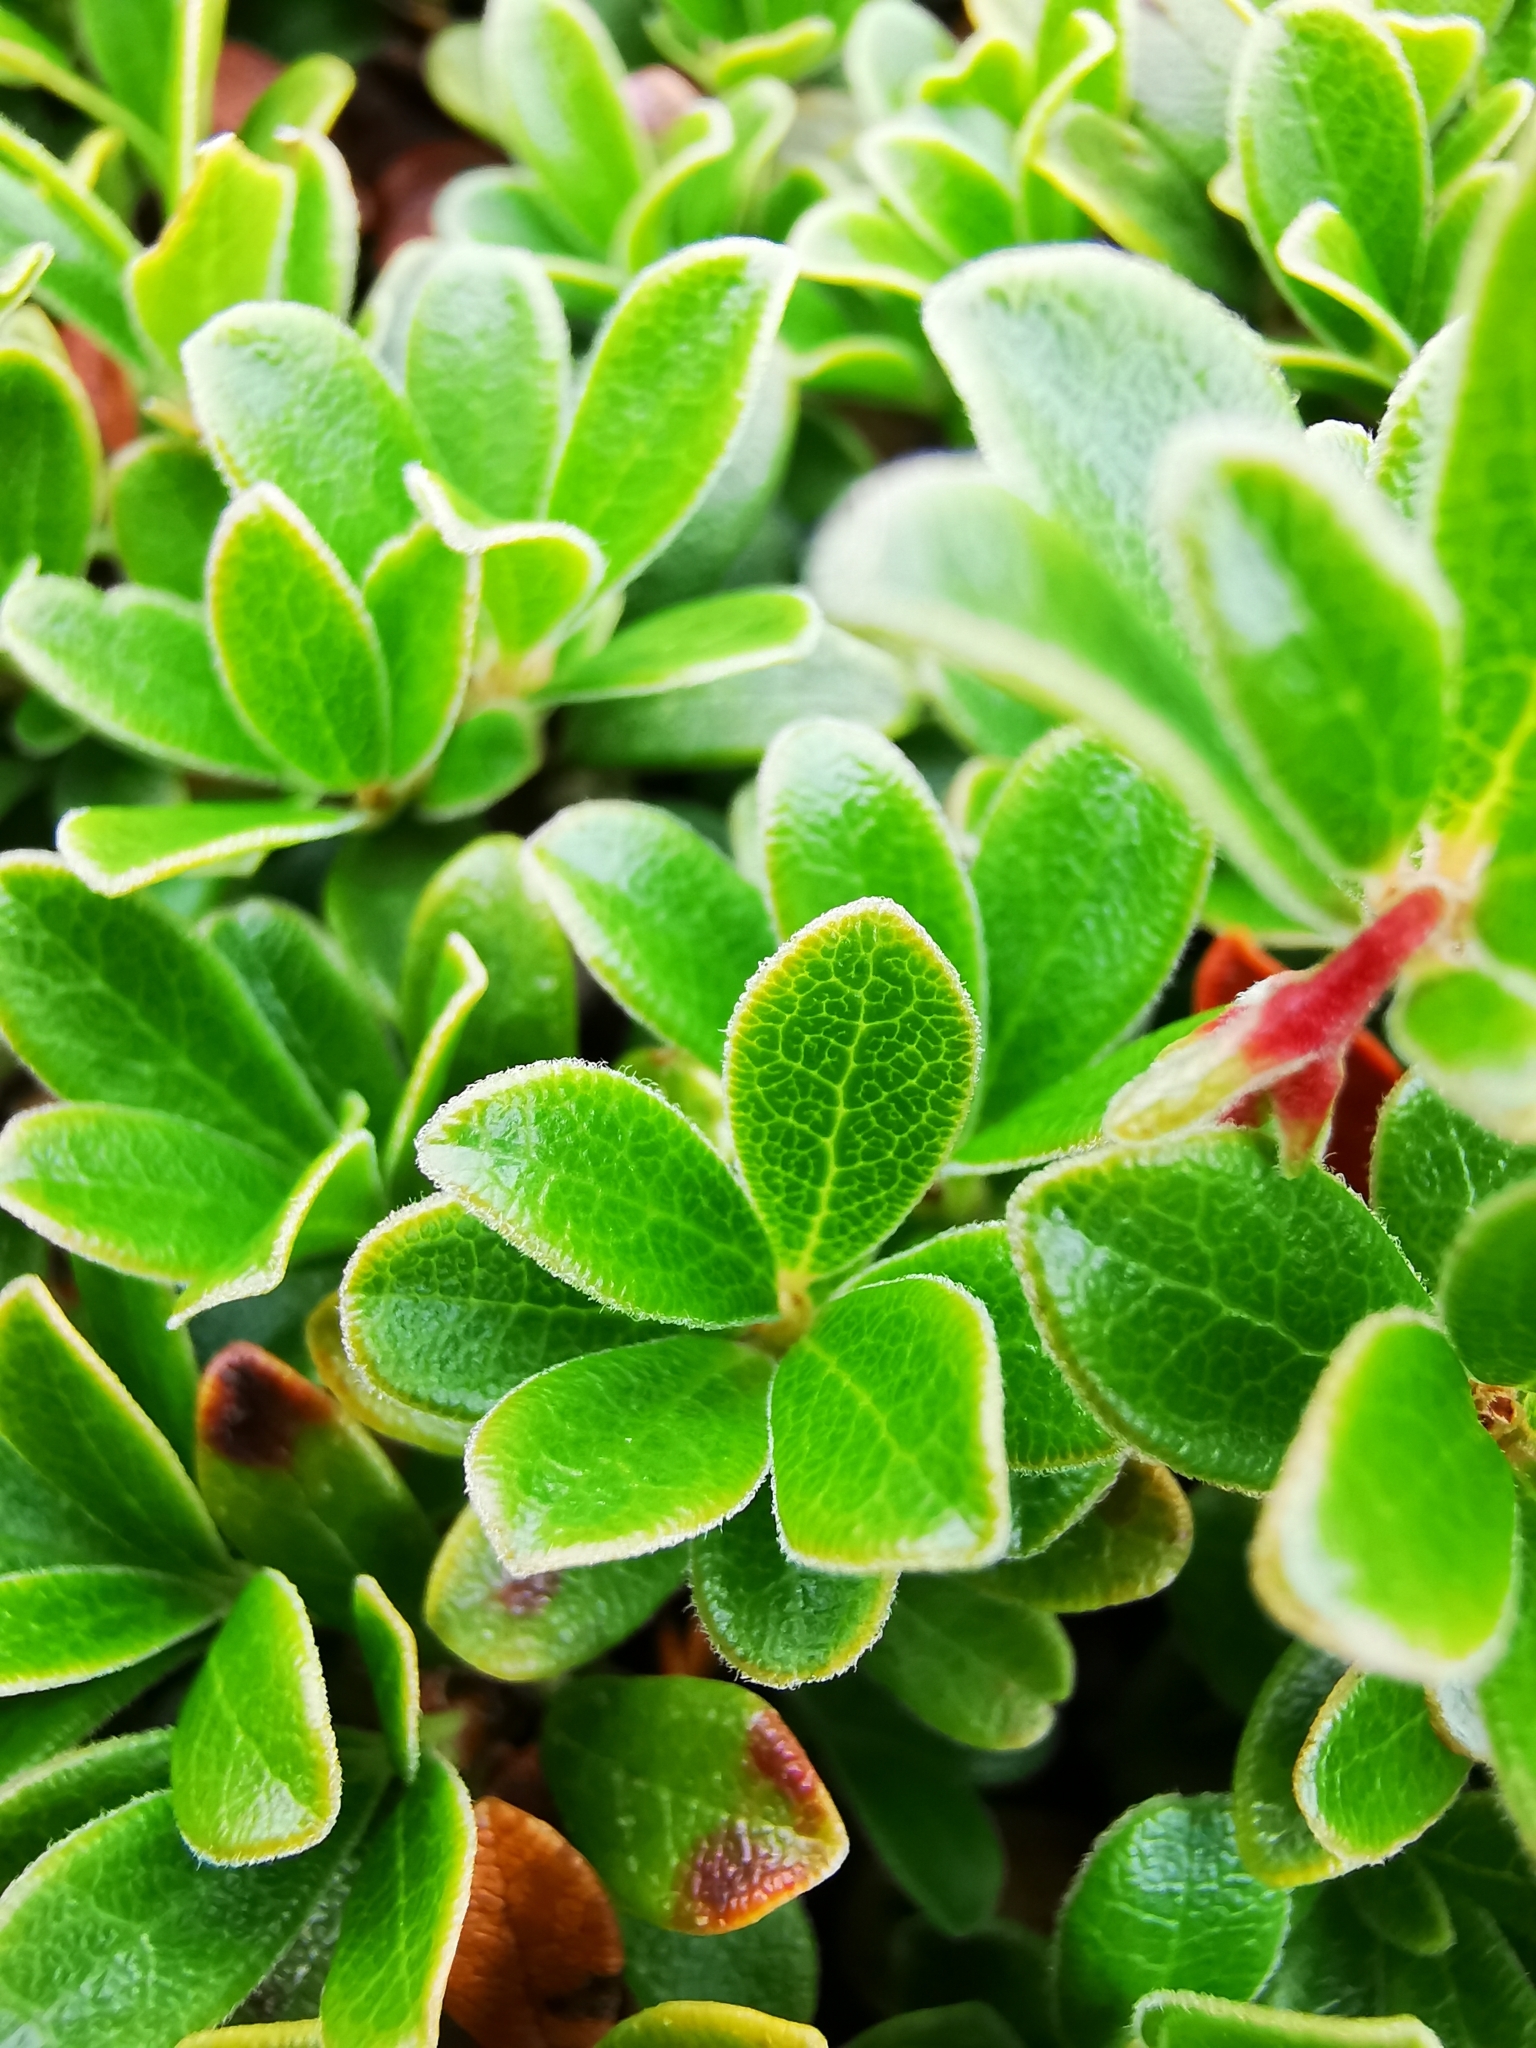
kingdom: Plantae
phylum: Tracheophyta
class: Magnoliopsida
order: Ericales
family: Ericaceae
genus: Arctostaphylos
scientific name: Arctostaphylos uva-ursi
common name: Bearberry
